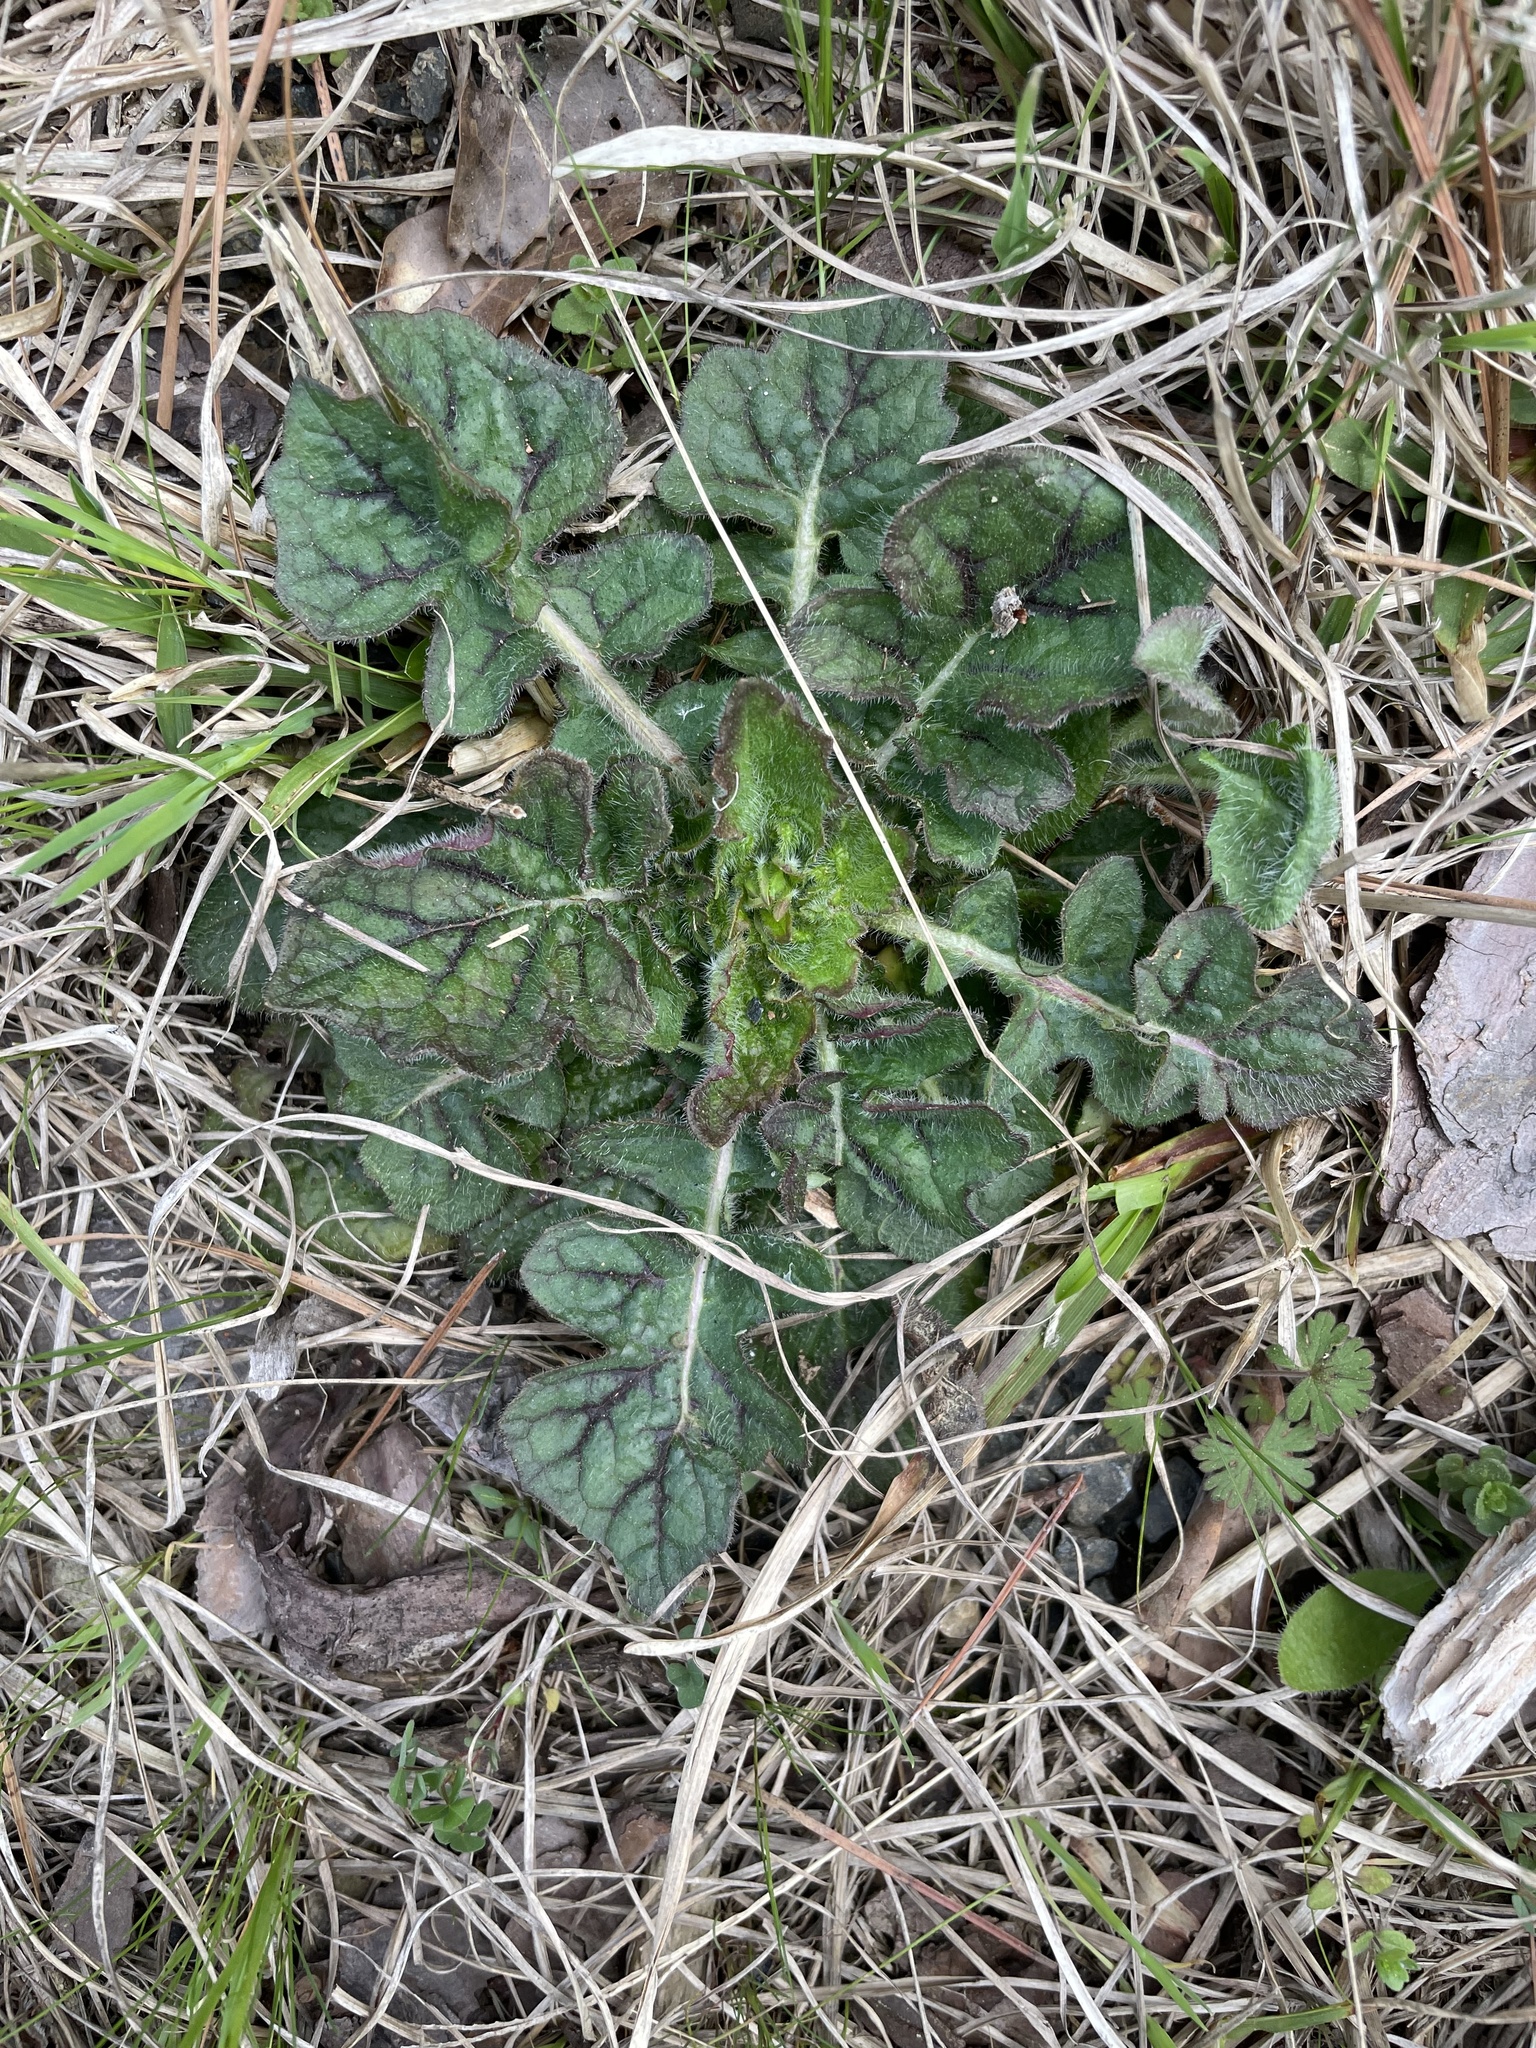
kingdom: Plantae
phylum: Tracheophyta
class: Magnoliopsida
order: Lamiales
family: Lamiaceae
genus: Salvia
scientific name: Salvia lyrata
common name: Cancerweed
